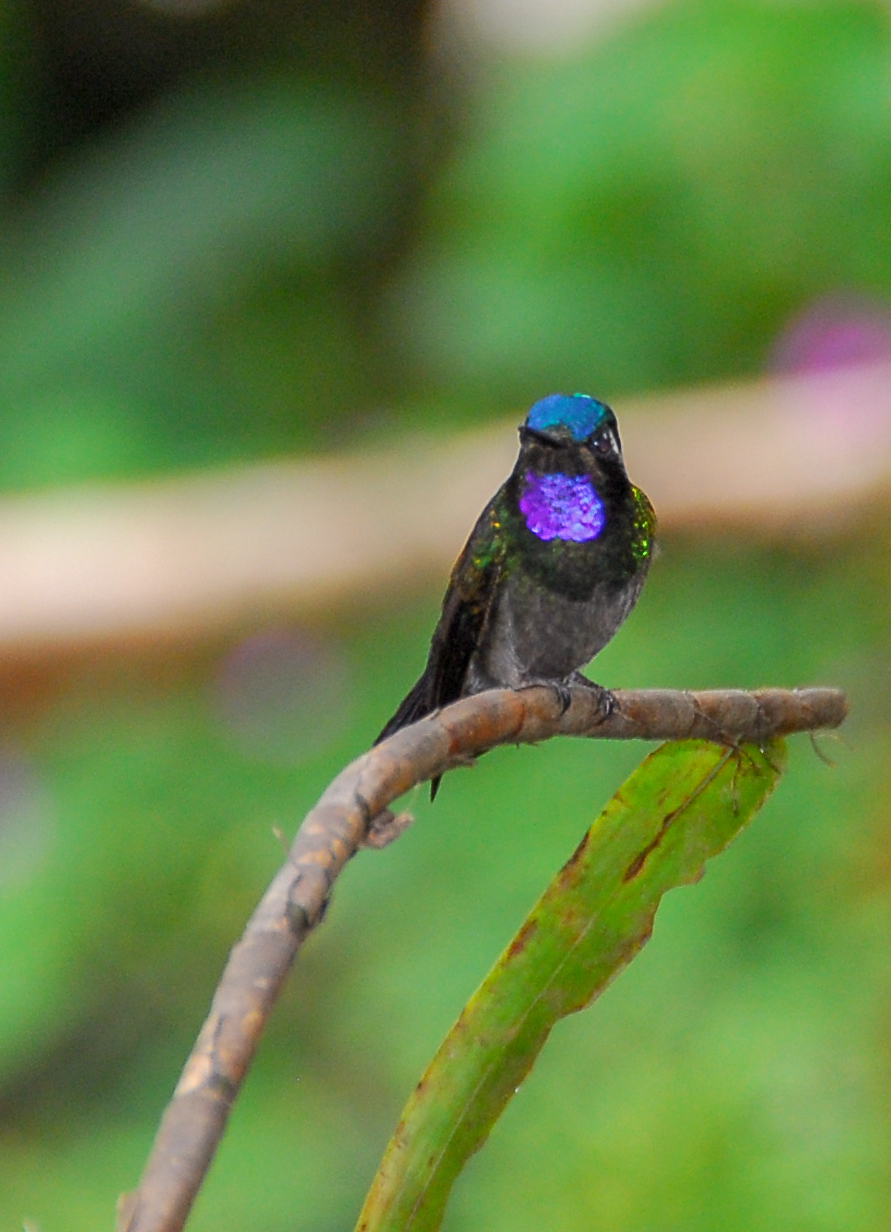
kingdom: Animalia
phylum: Chordata
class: Aves
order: Apodiformes
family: Trochilidae
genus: Lampornis
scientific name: Lampornis calolaemus
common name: Purple-throated mountain-gem
